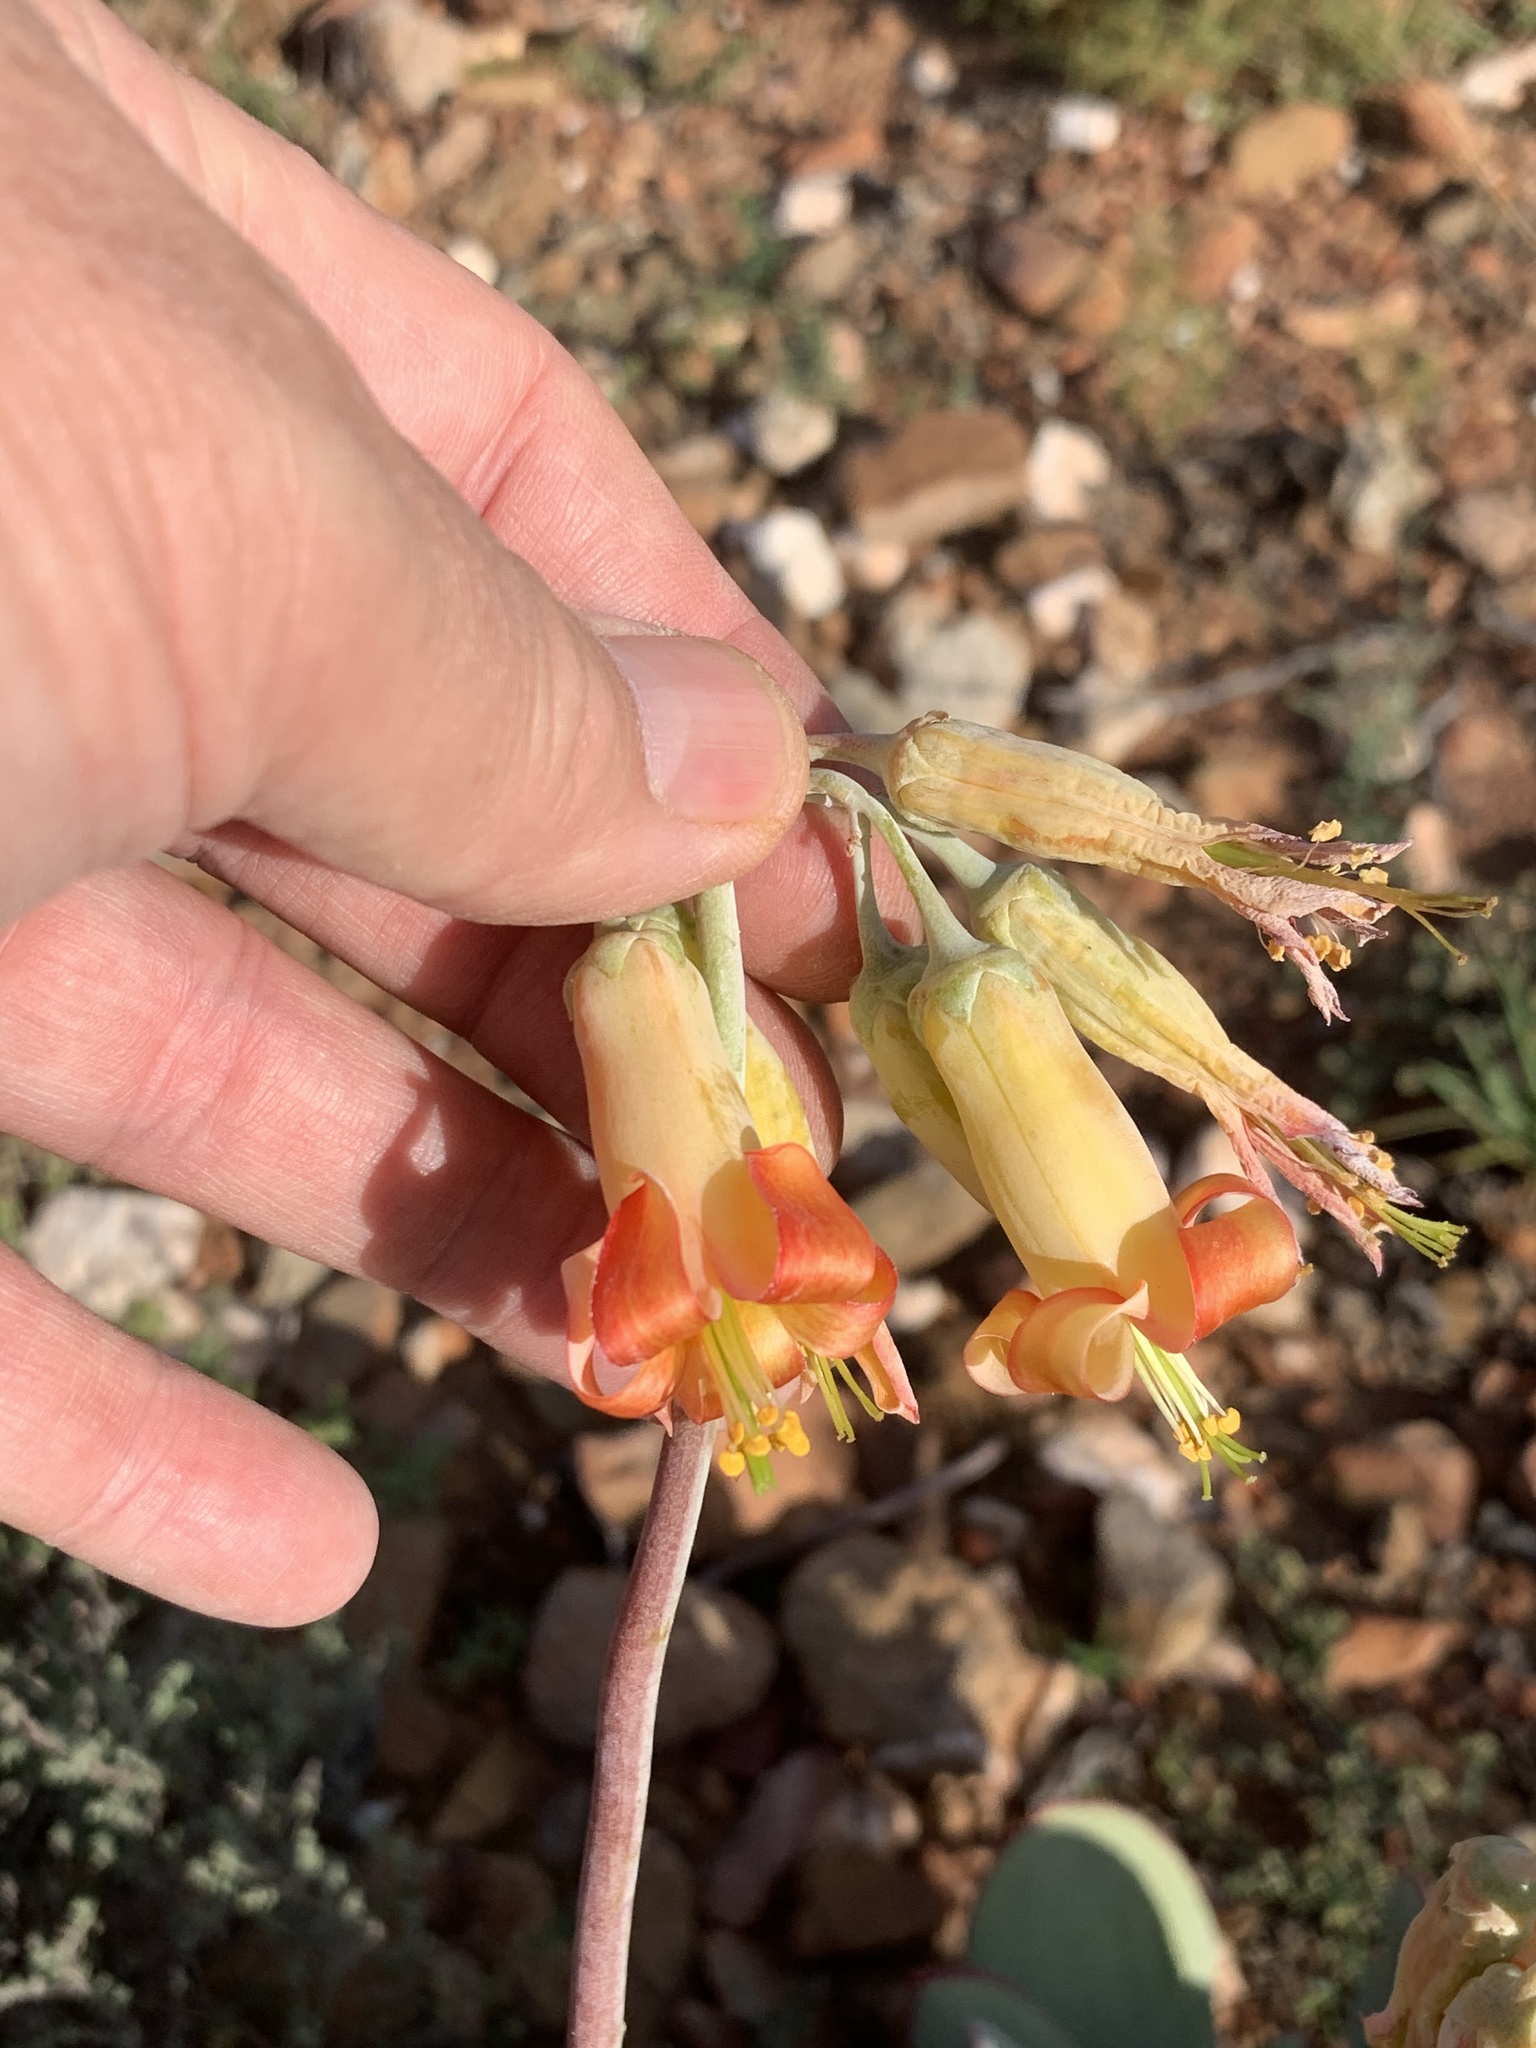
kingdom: Plantae
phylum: Tracheophyta
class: Magnoliopsida
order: Saxifragales
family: Crassulaceae
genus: Cotyledon
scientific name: Cotyledon orbiculata
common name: Pig's ear
